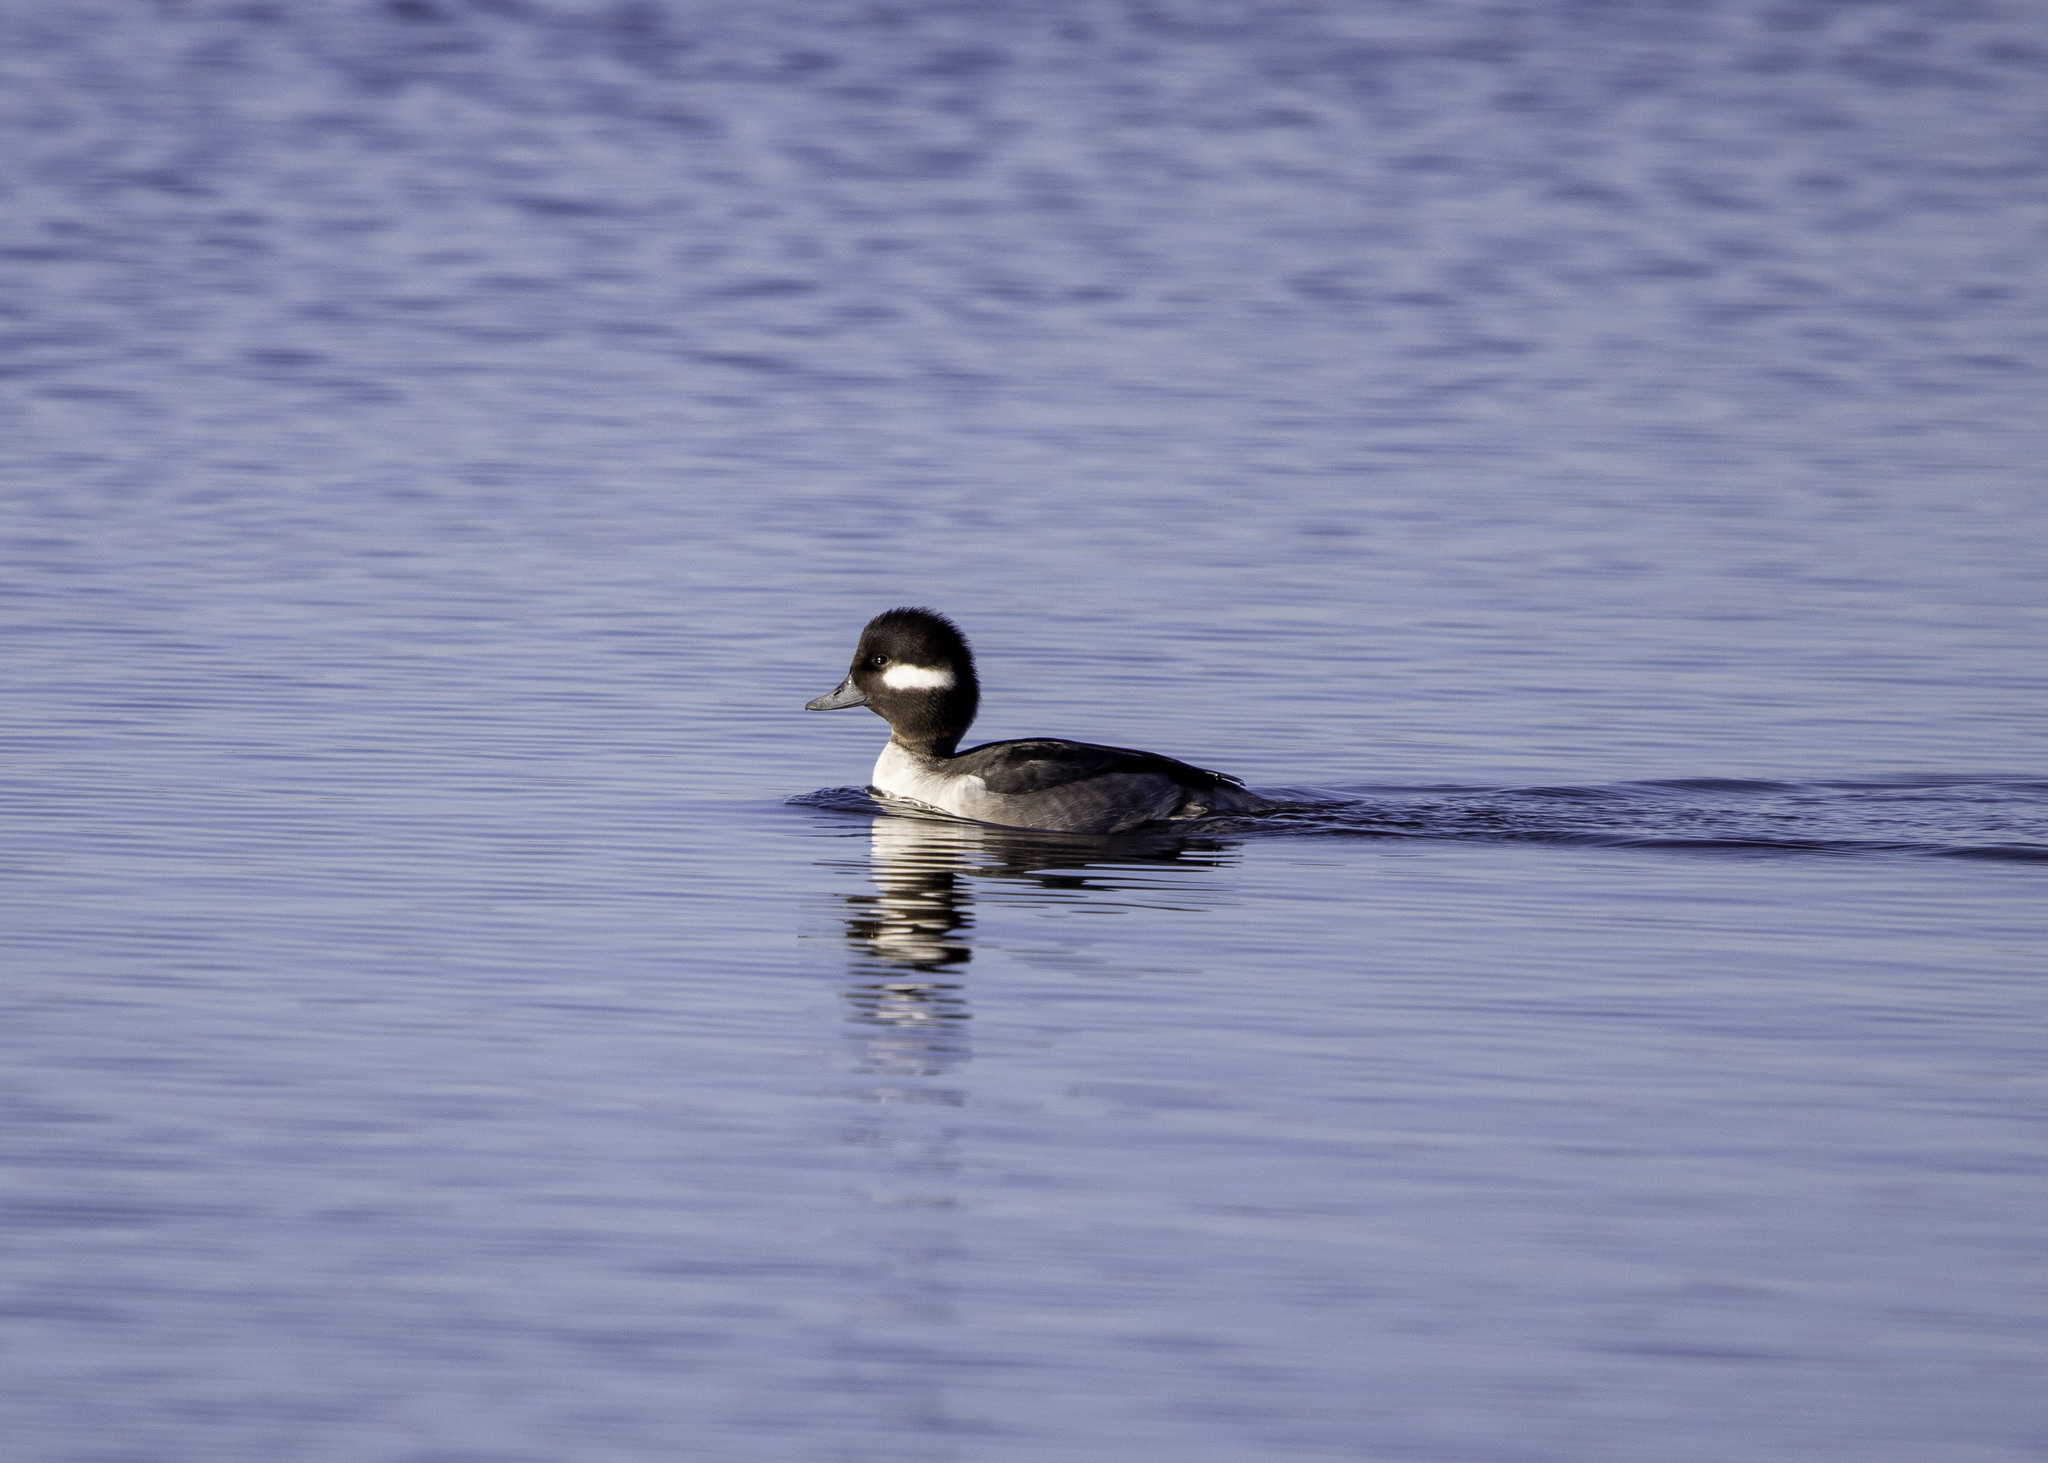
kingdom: Animalia
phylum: Chordata
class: Aves
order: Anseriformes
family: Anatidae
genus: Bucephala
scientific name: Bucephala albeola
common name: Bufflehead
